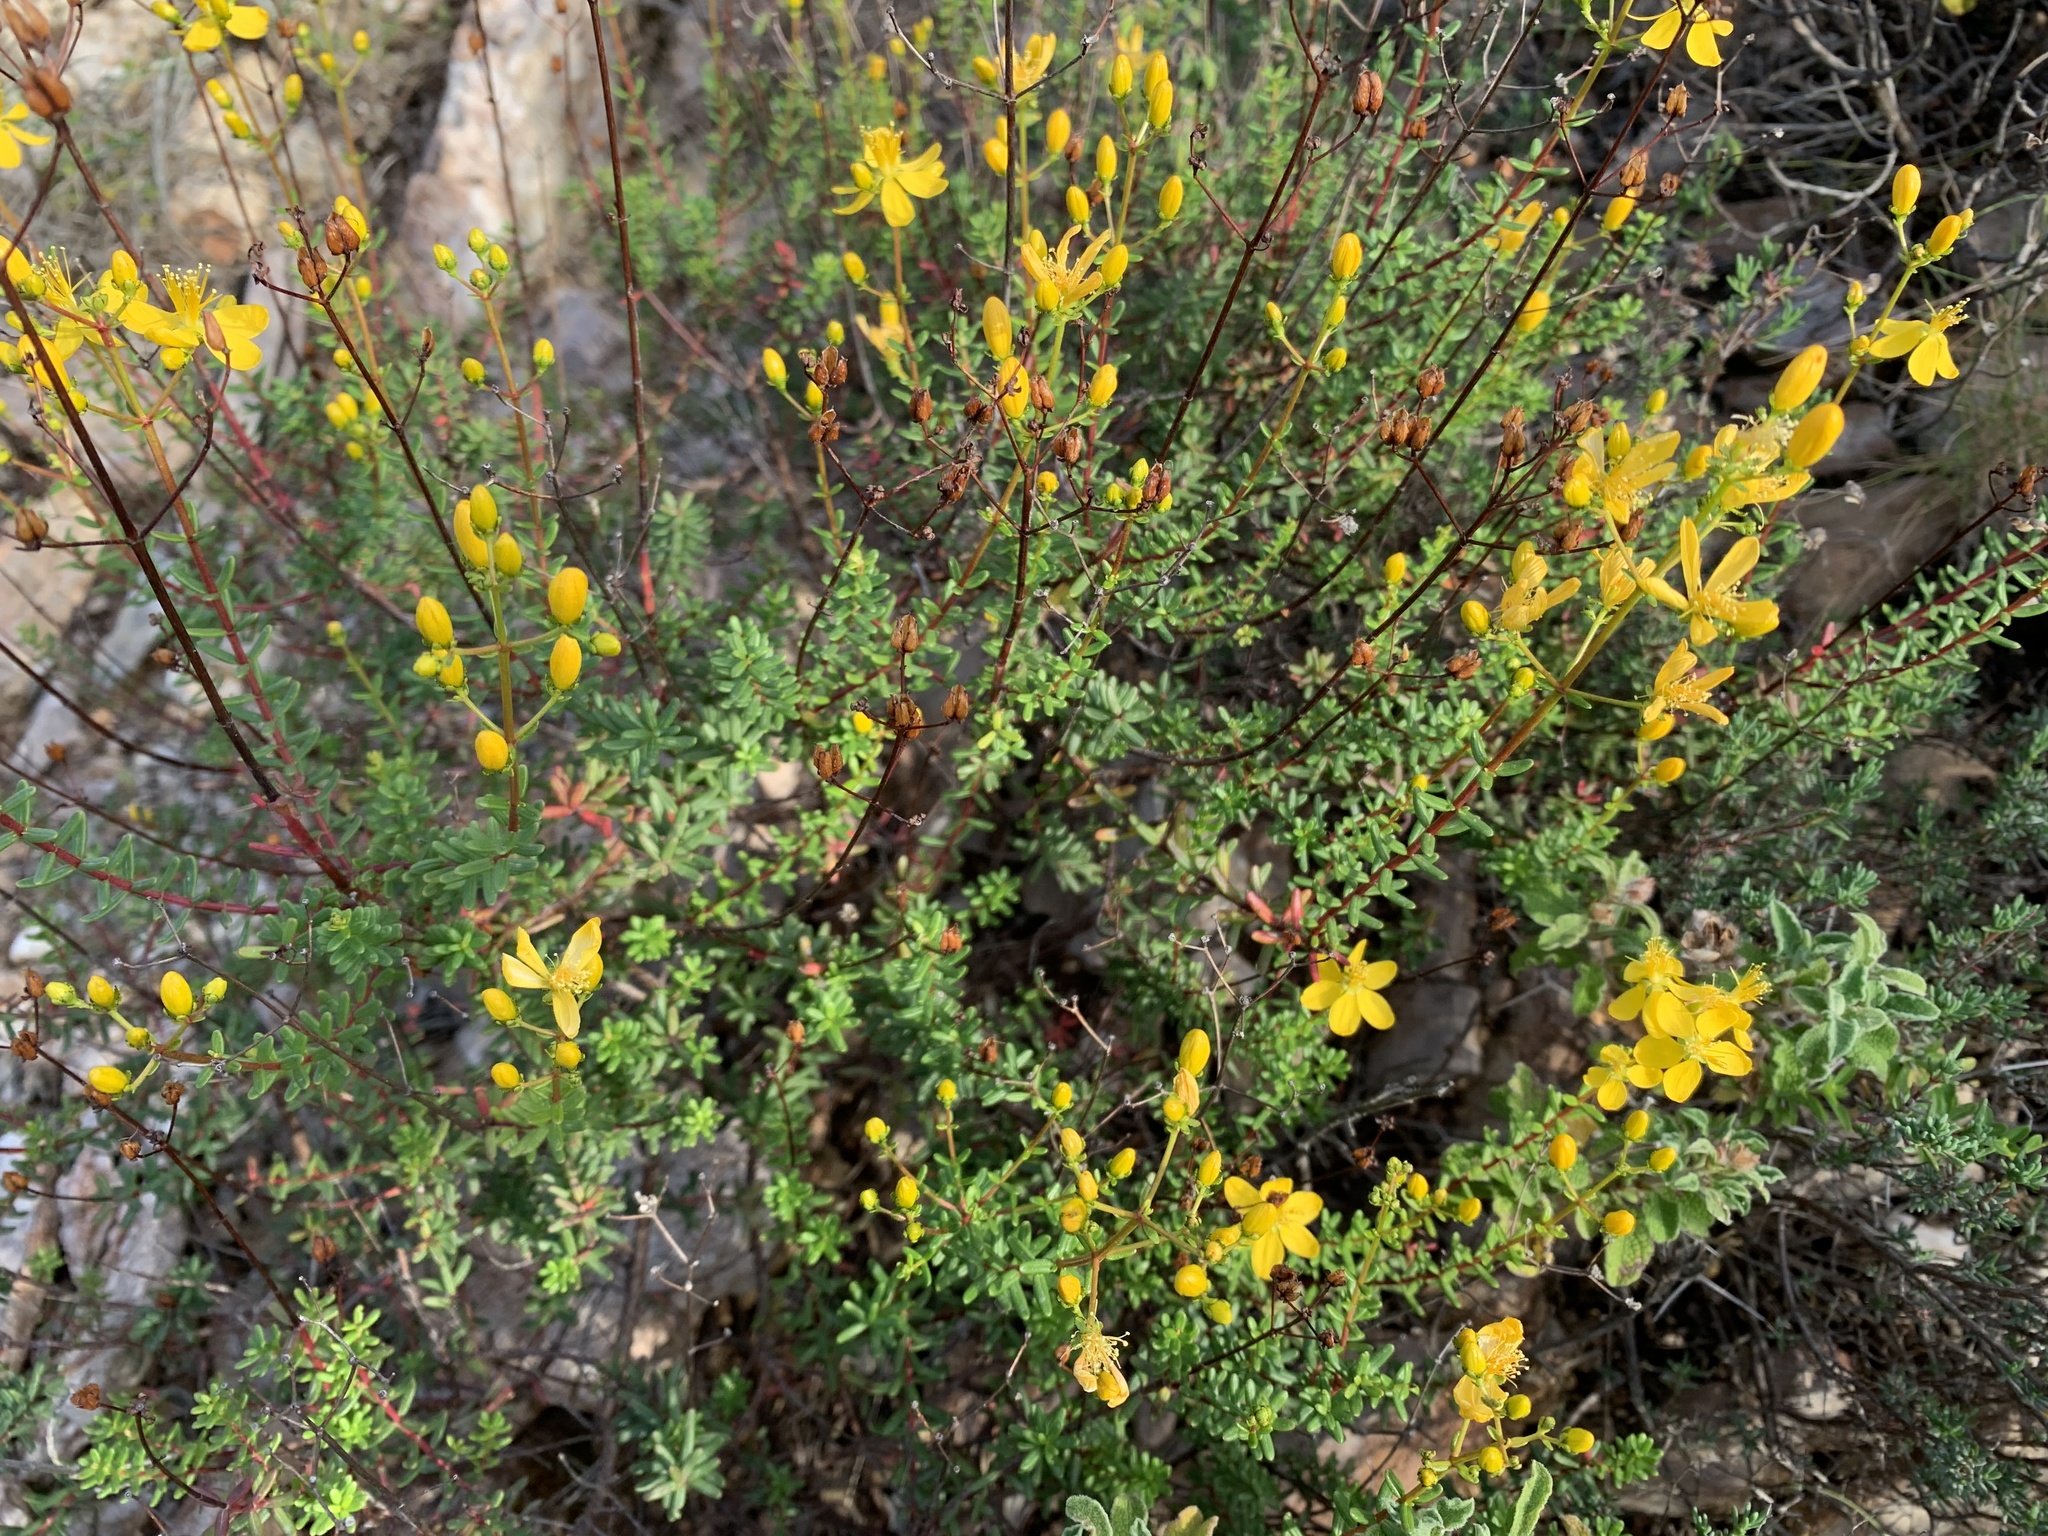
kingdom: Plantae
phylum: Tracheophyta
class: Magnoliopsida
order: Malpighiales
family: Hypericaceae
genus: Hypericum
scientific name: Hypericum empetrifolium
